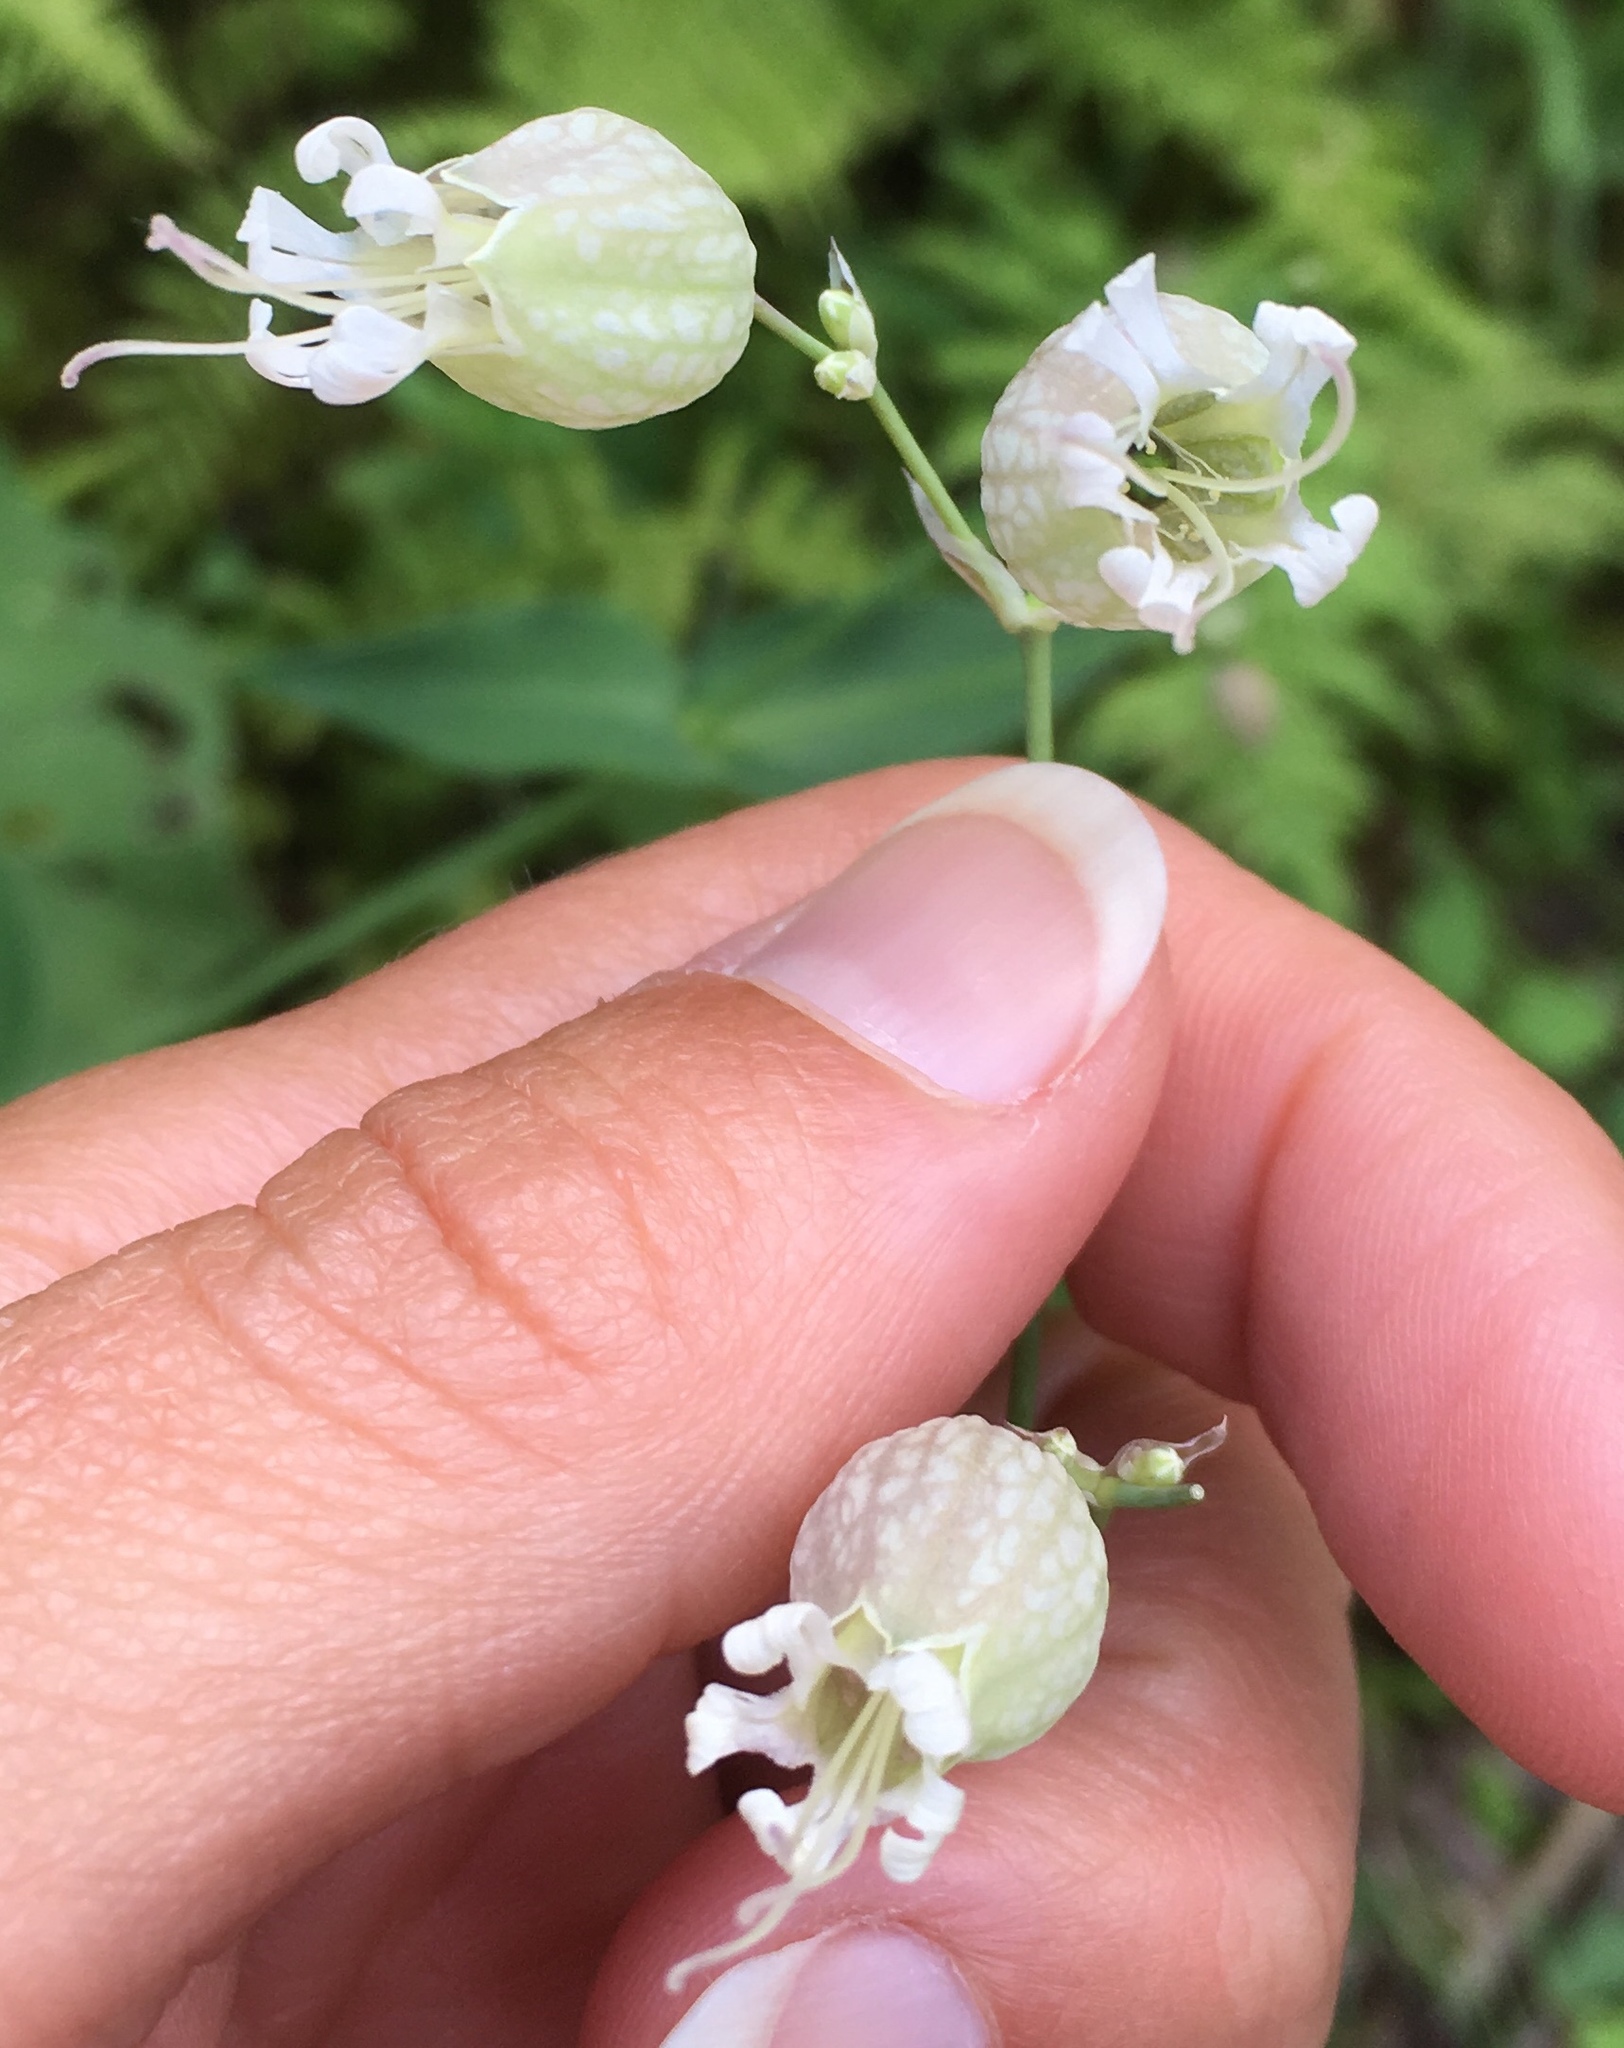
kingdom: Plantae
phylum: Tracheophyta
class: Magnoliopsida
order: Caryophyllales
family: Caryophyllaceae
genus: Silene
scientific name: Silene vulgaris
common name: Bladder campion
